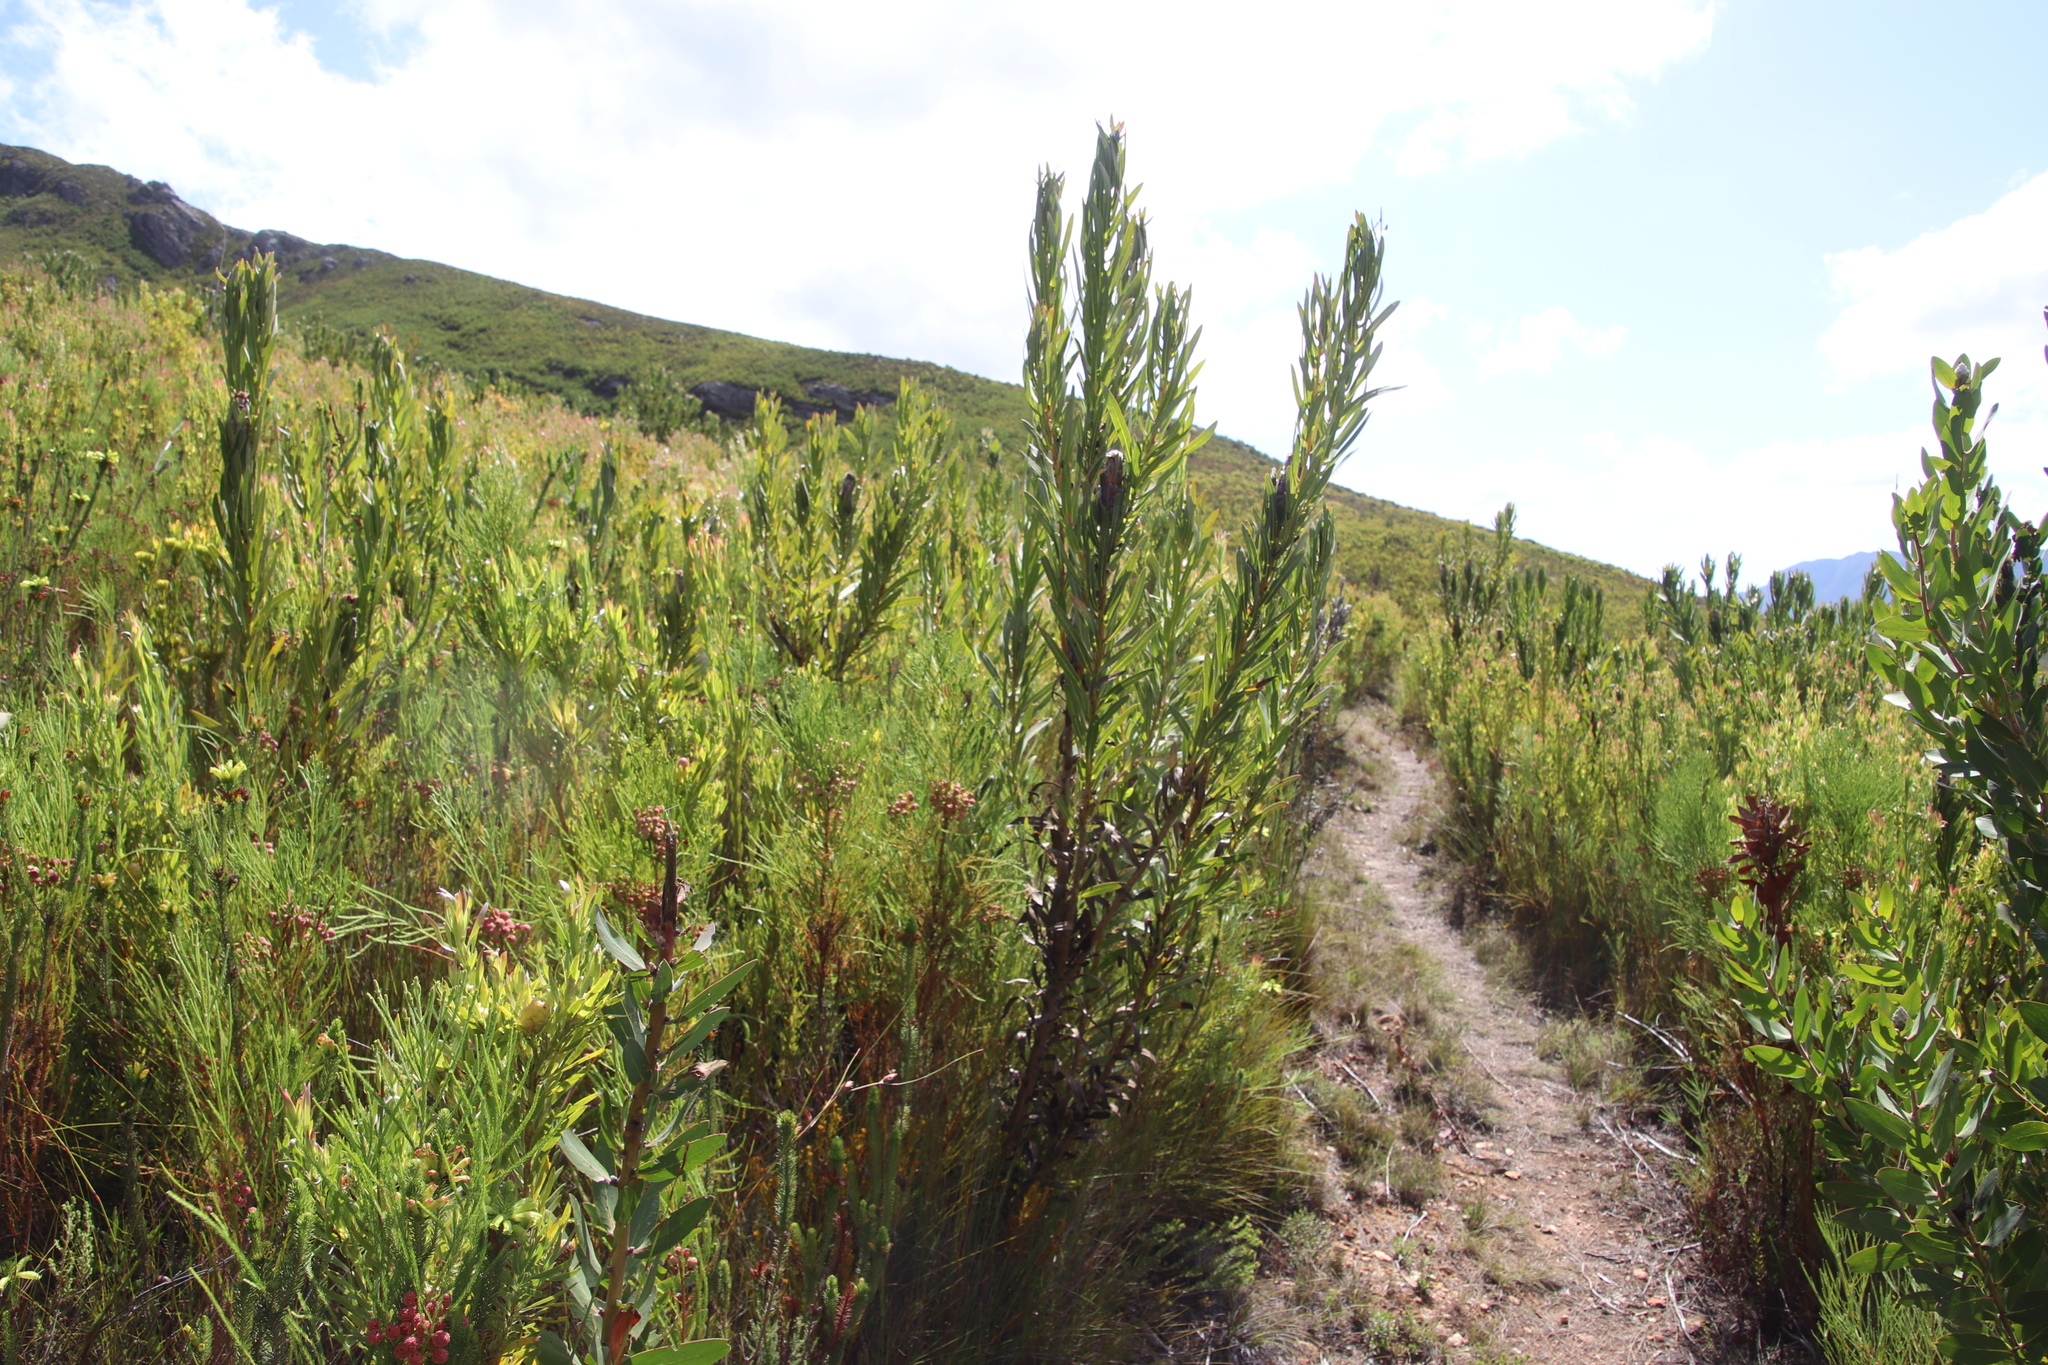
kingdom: Plantae
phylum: Tracheophyta
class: Magnoliopsida
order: Proteales
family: Proteaceae
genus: Protea
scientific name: Protea lepidocarpodendron
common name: Black-bearded protea
